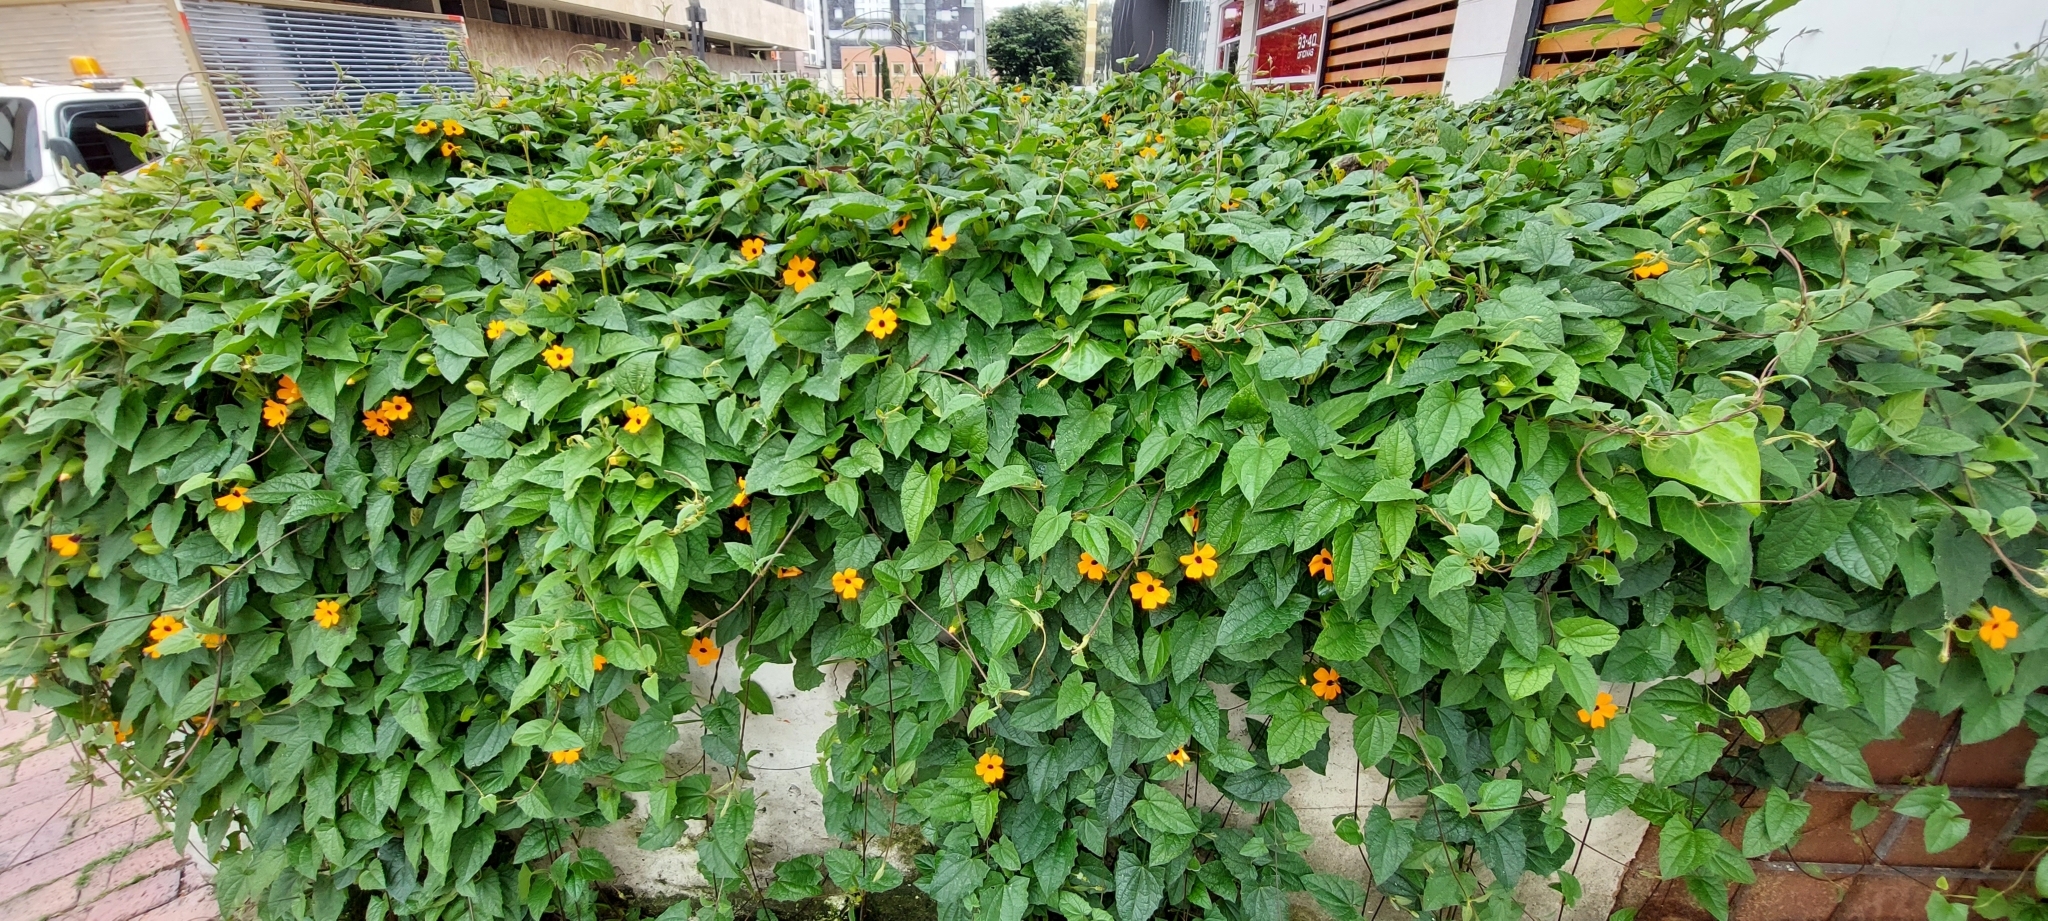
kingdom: Plantae
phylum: Tracheophyta
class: Magnoliopsida
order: Lamiales
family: Acanthaceae
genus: Thunbergia
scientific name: Thunbergia alata
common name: Blackeyed susan vine
